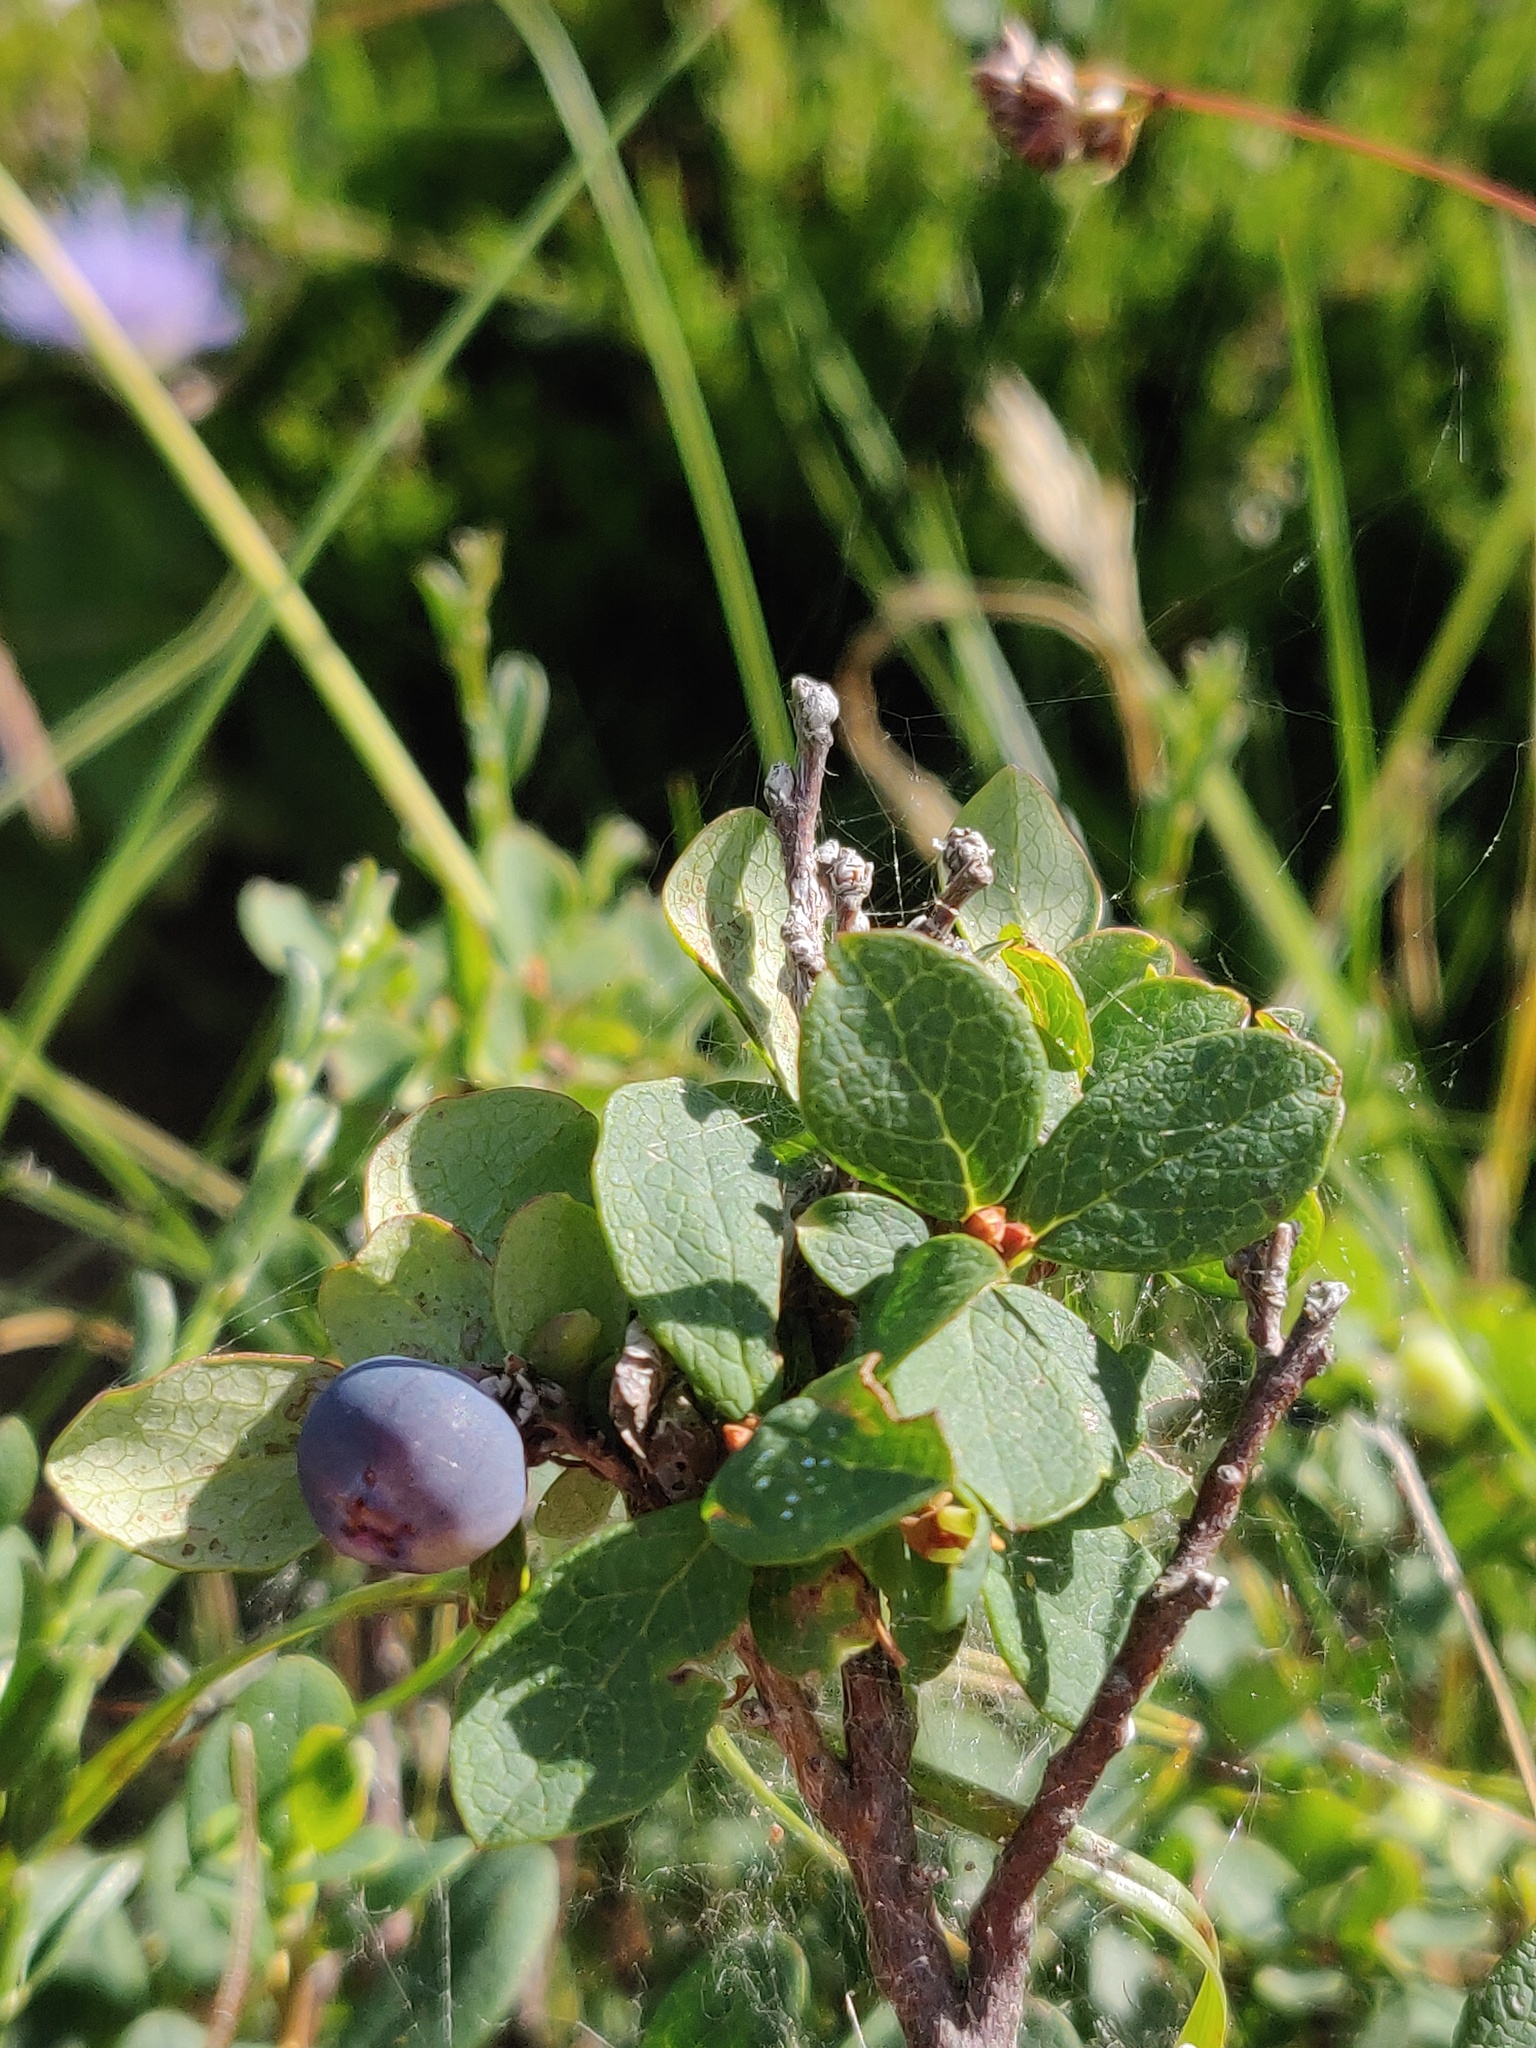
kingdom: Plantae
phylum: Tracheophyta
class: Magnoliopsida
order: Ericales
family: Ericaceae
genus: Vaccinium
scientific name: Vaccinium uliginosum
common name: Bog bilberry
